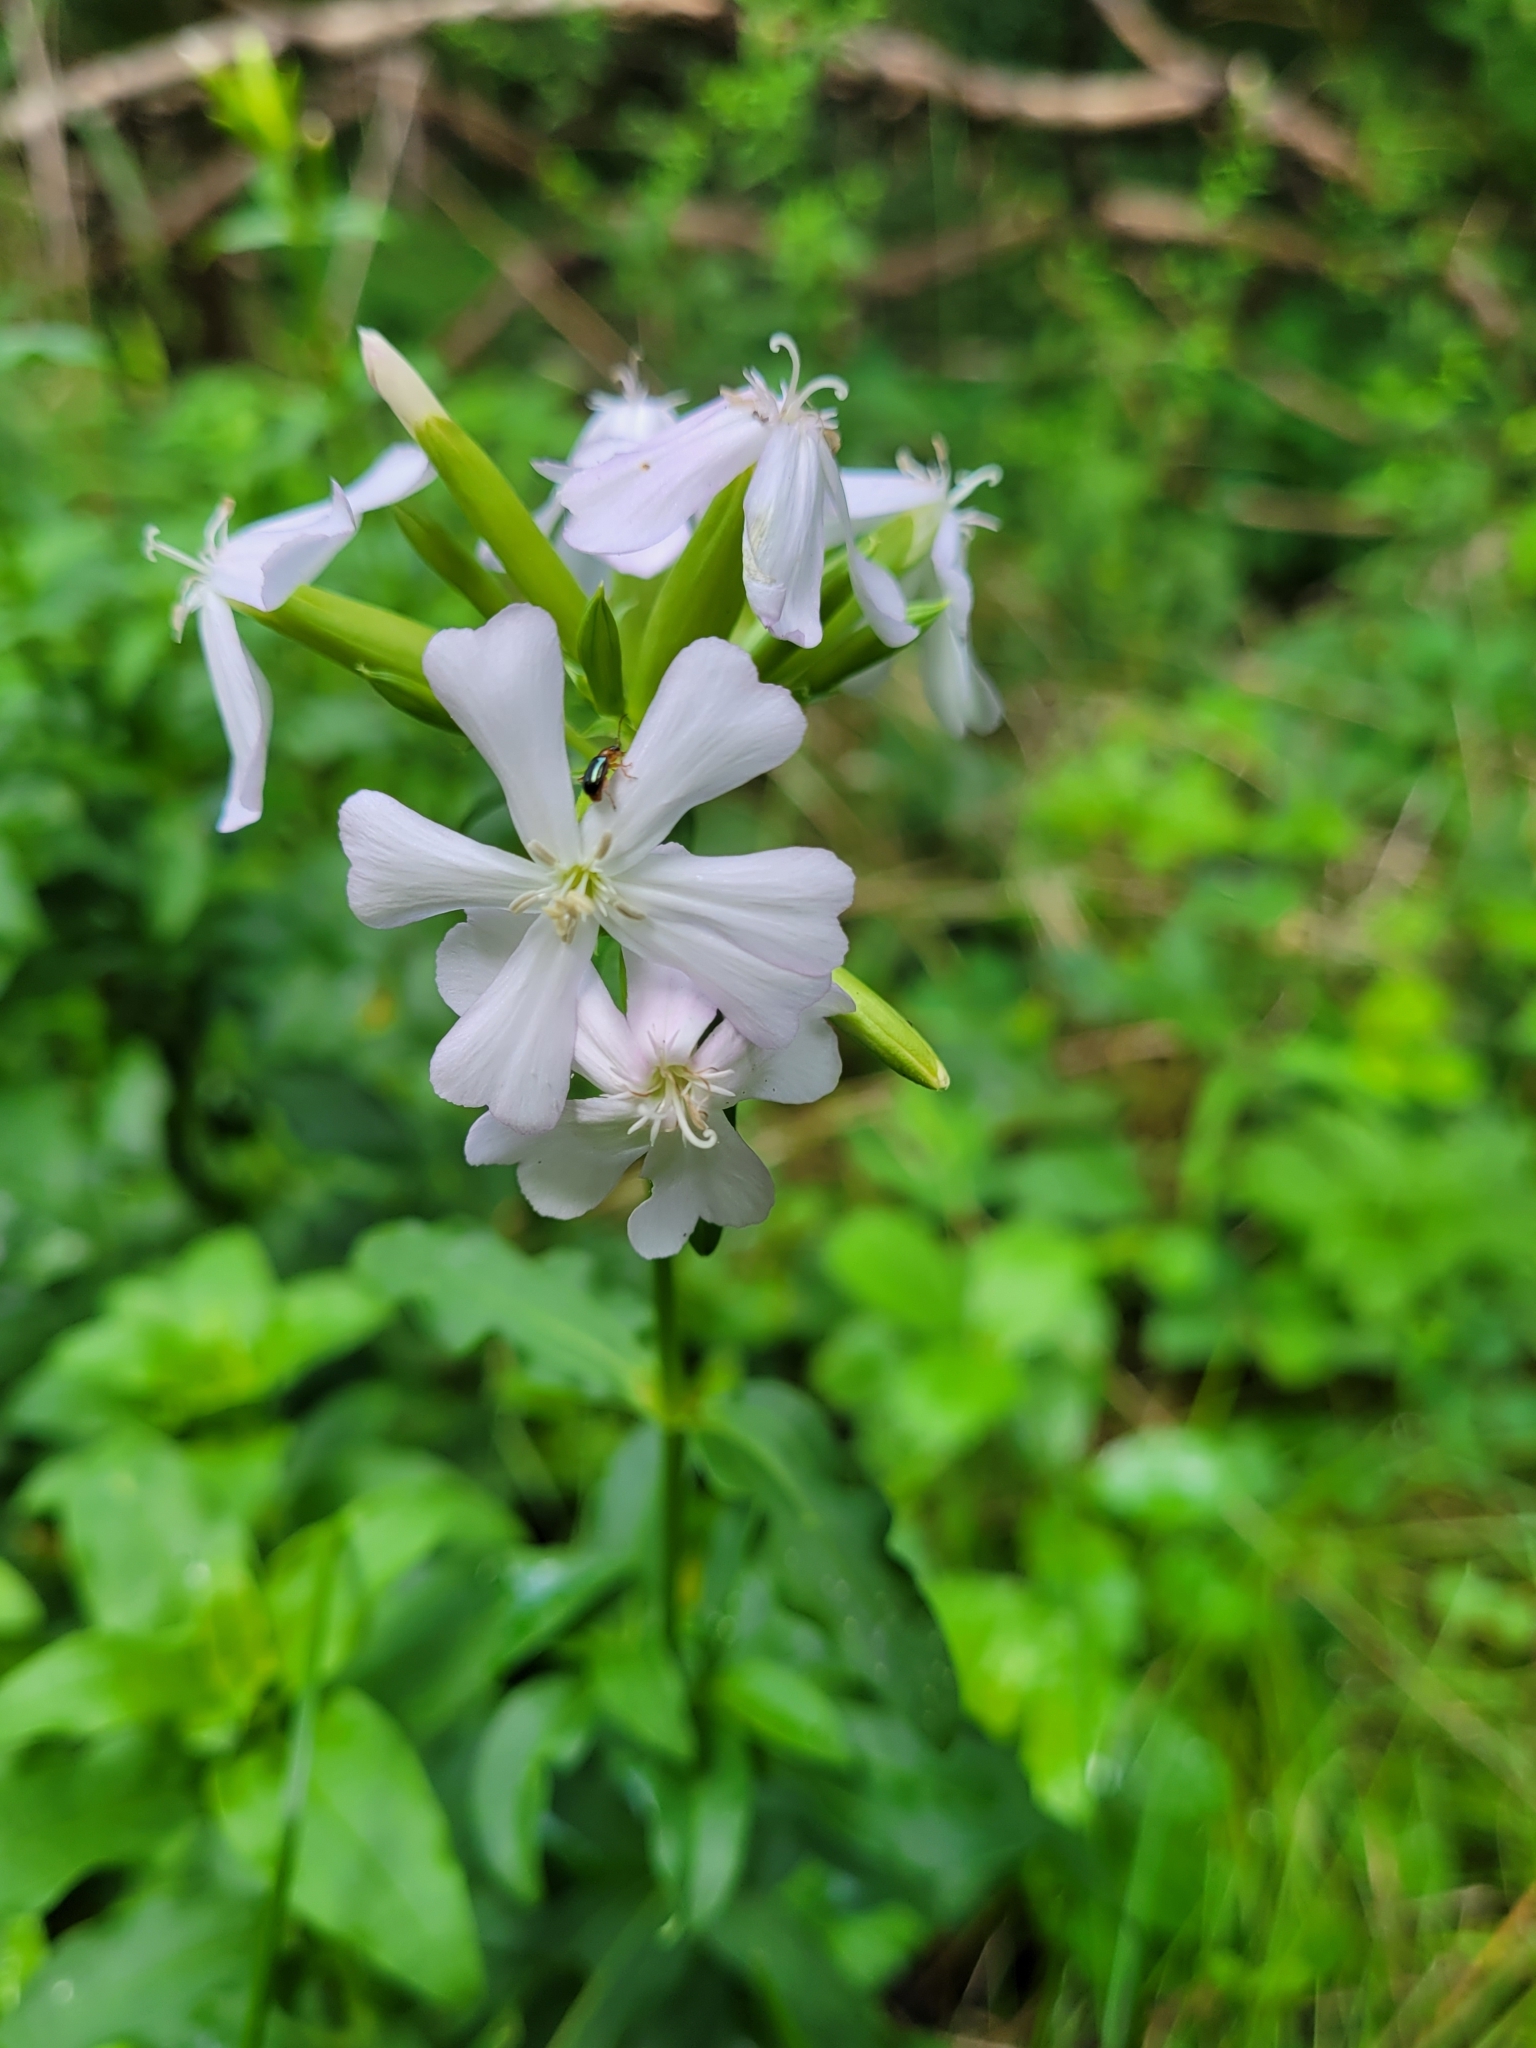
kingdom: Plantae
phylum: Tracheophyta
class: Magnoliopsida
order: Caryophyllales
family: Caryophyllaceae
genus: Saponaria
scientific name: Saponaria officinalis
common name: Soapwort
